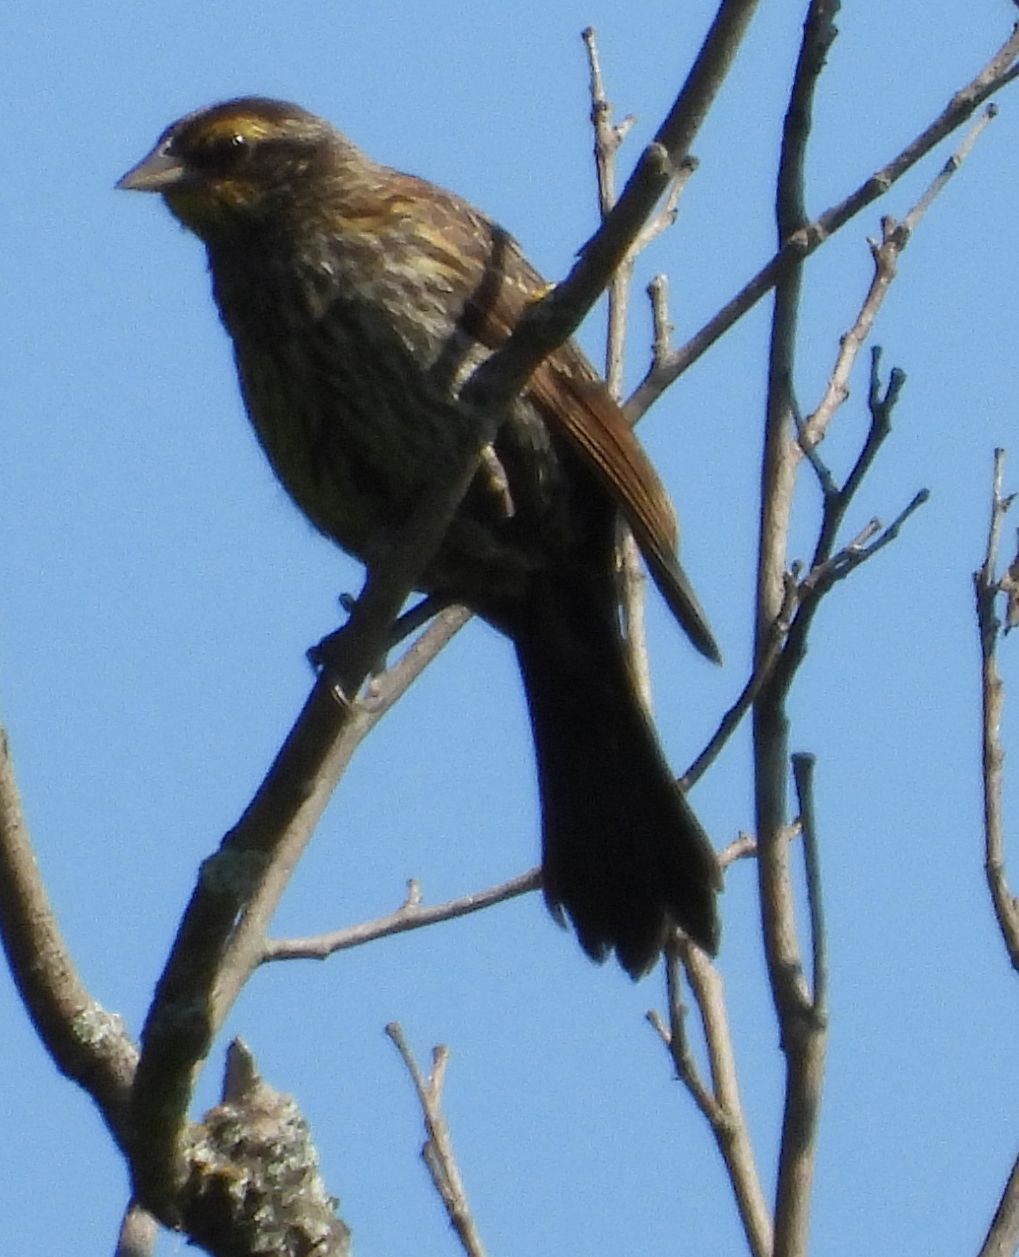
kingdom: Animalia
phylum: Chordata
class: Aves
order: Passeriformes
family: Icteridae
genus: Agelaius
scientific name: Agelaius phoeniceus
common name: Red-winged blackbird
